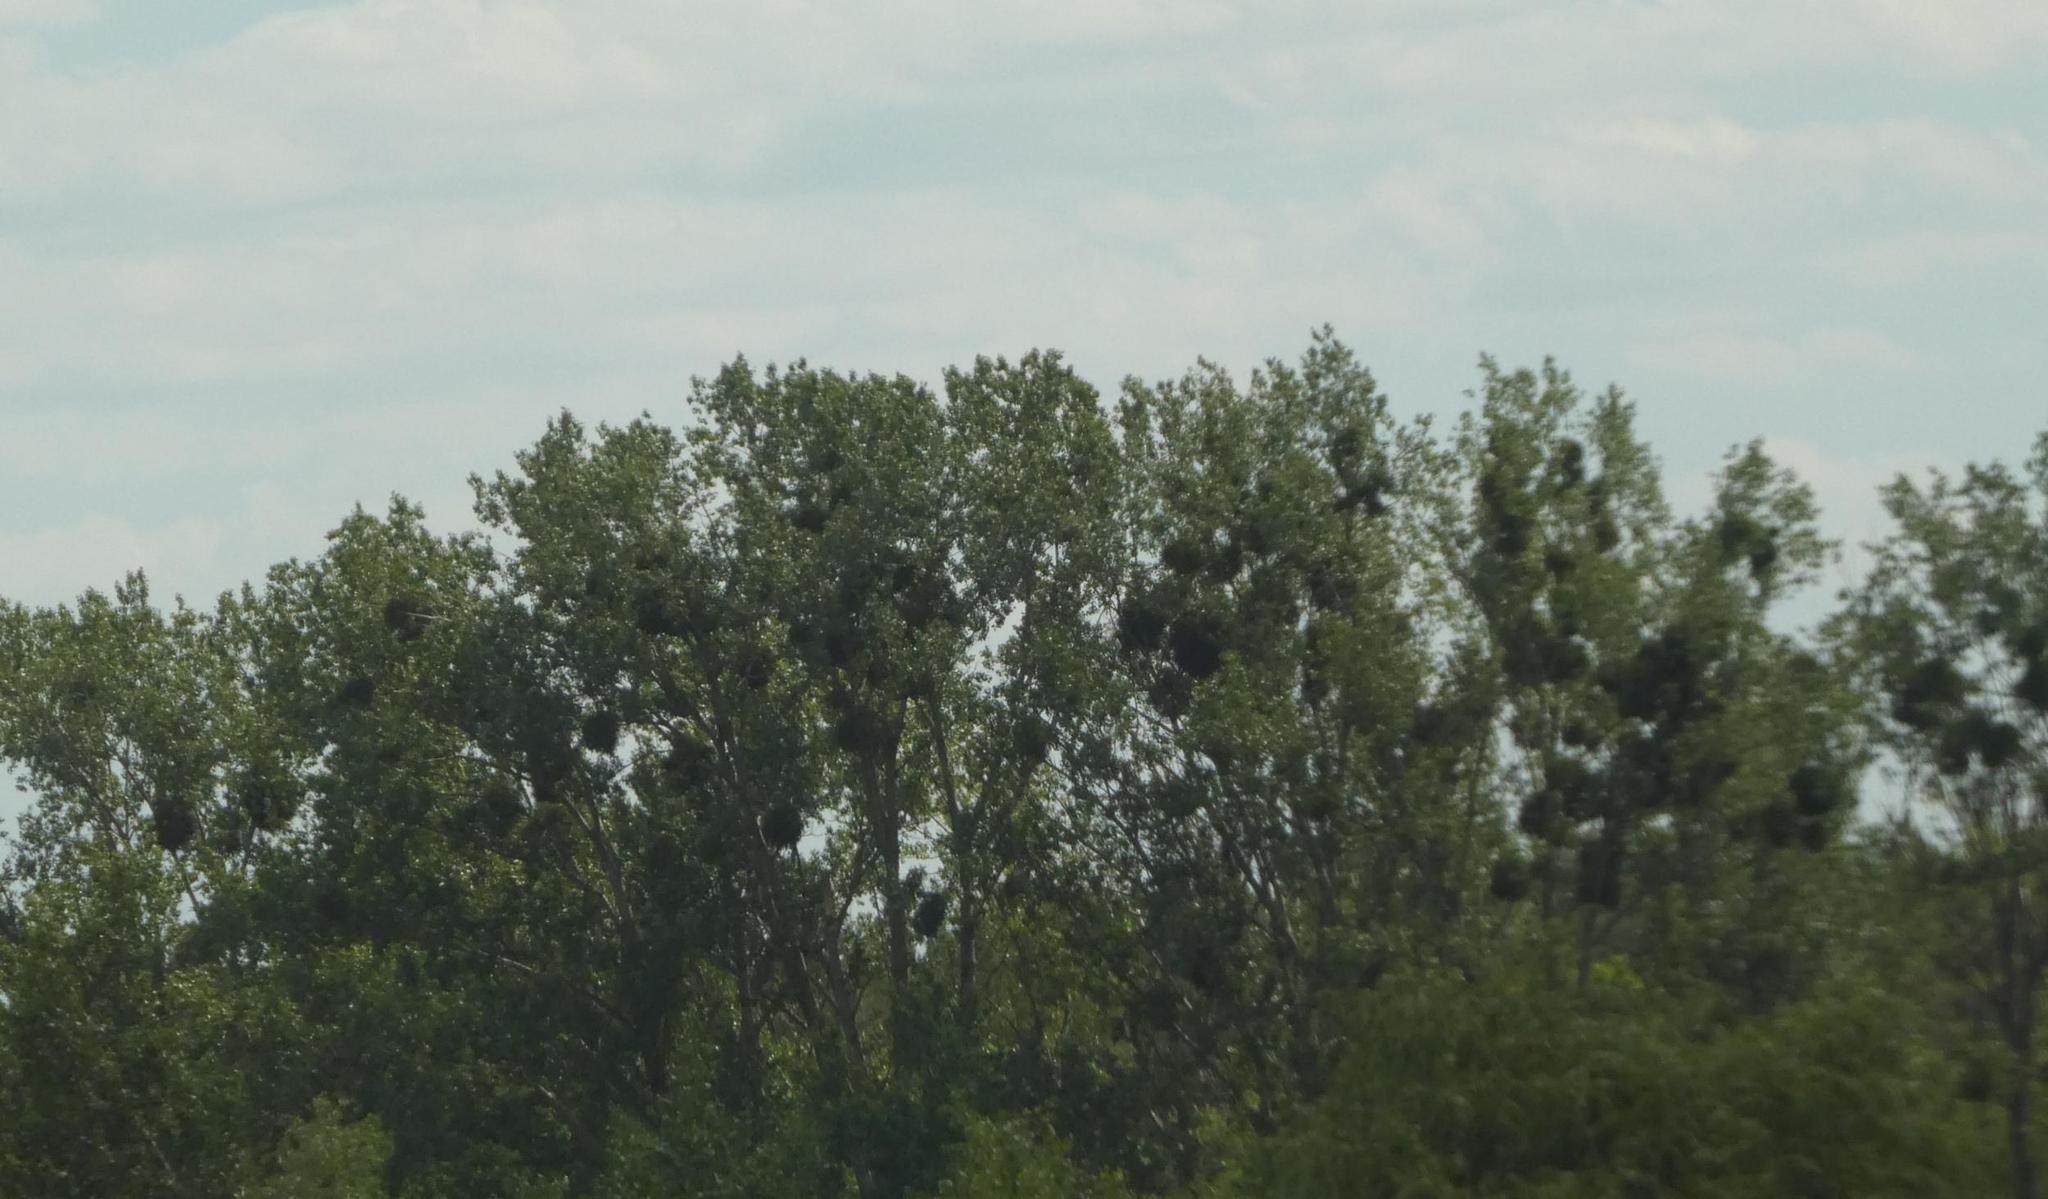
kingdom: Plantae
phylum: Tracheophyta
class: Magnoliopsida
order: Santalales
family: Viscaceae
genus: Viscum
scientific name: Viscum album
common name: Mistletoe
